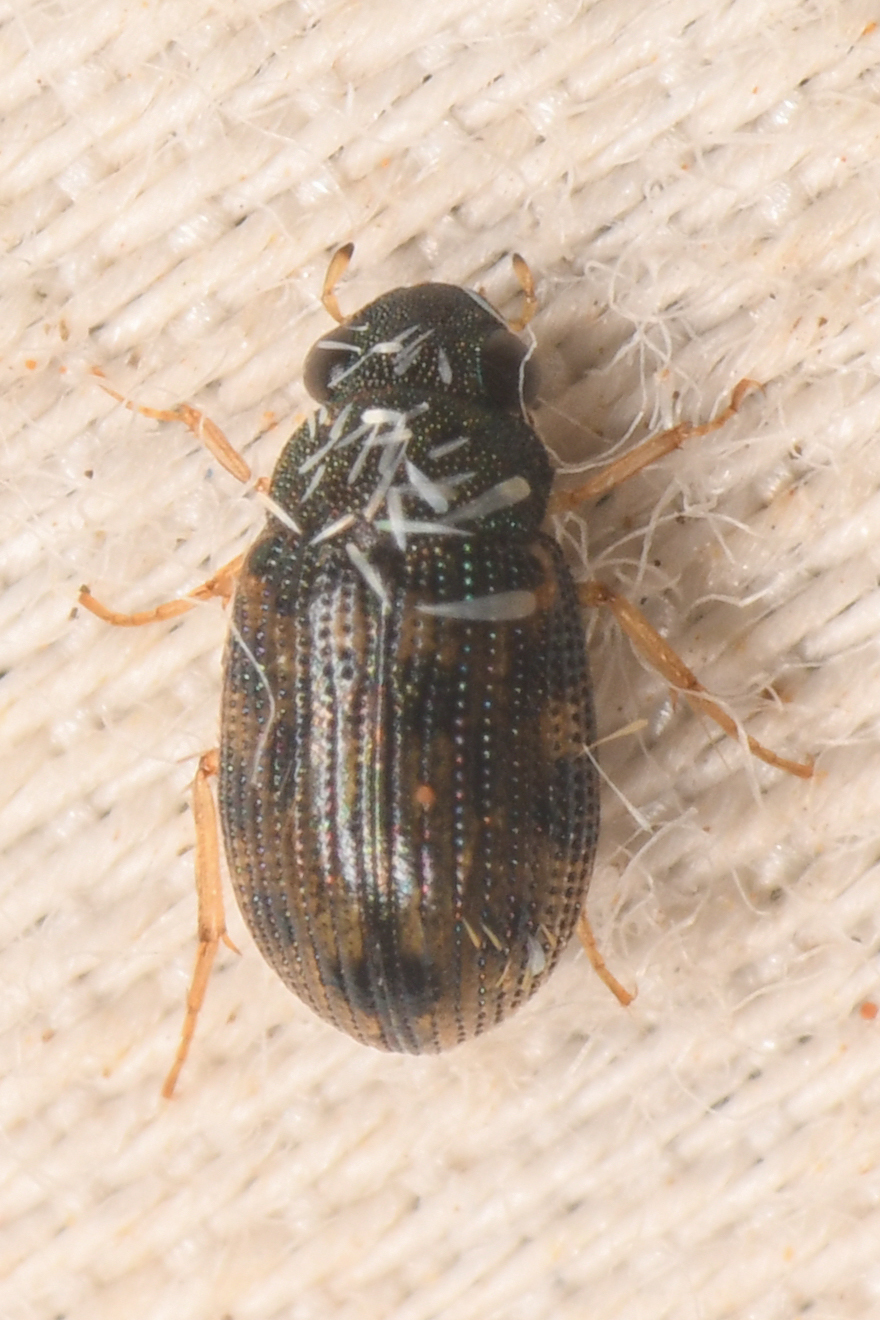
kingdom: Animalia
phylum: Arthropoda
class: Insecta
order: Coleoptera
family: Hydrophilidae
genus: Hemiosus
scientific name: Hemiosus maculatus
